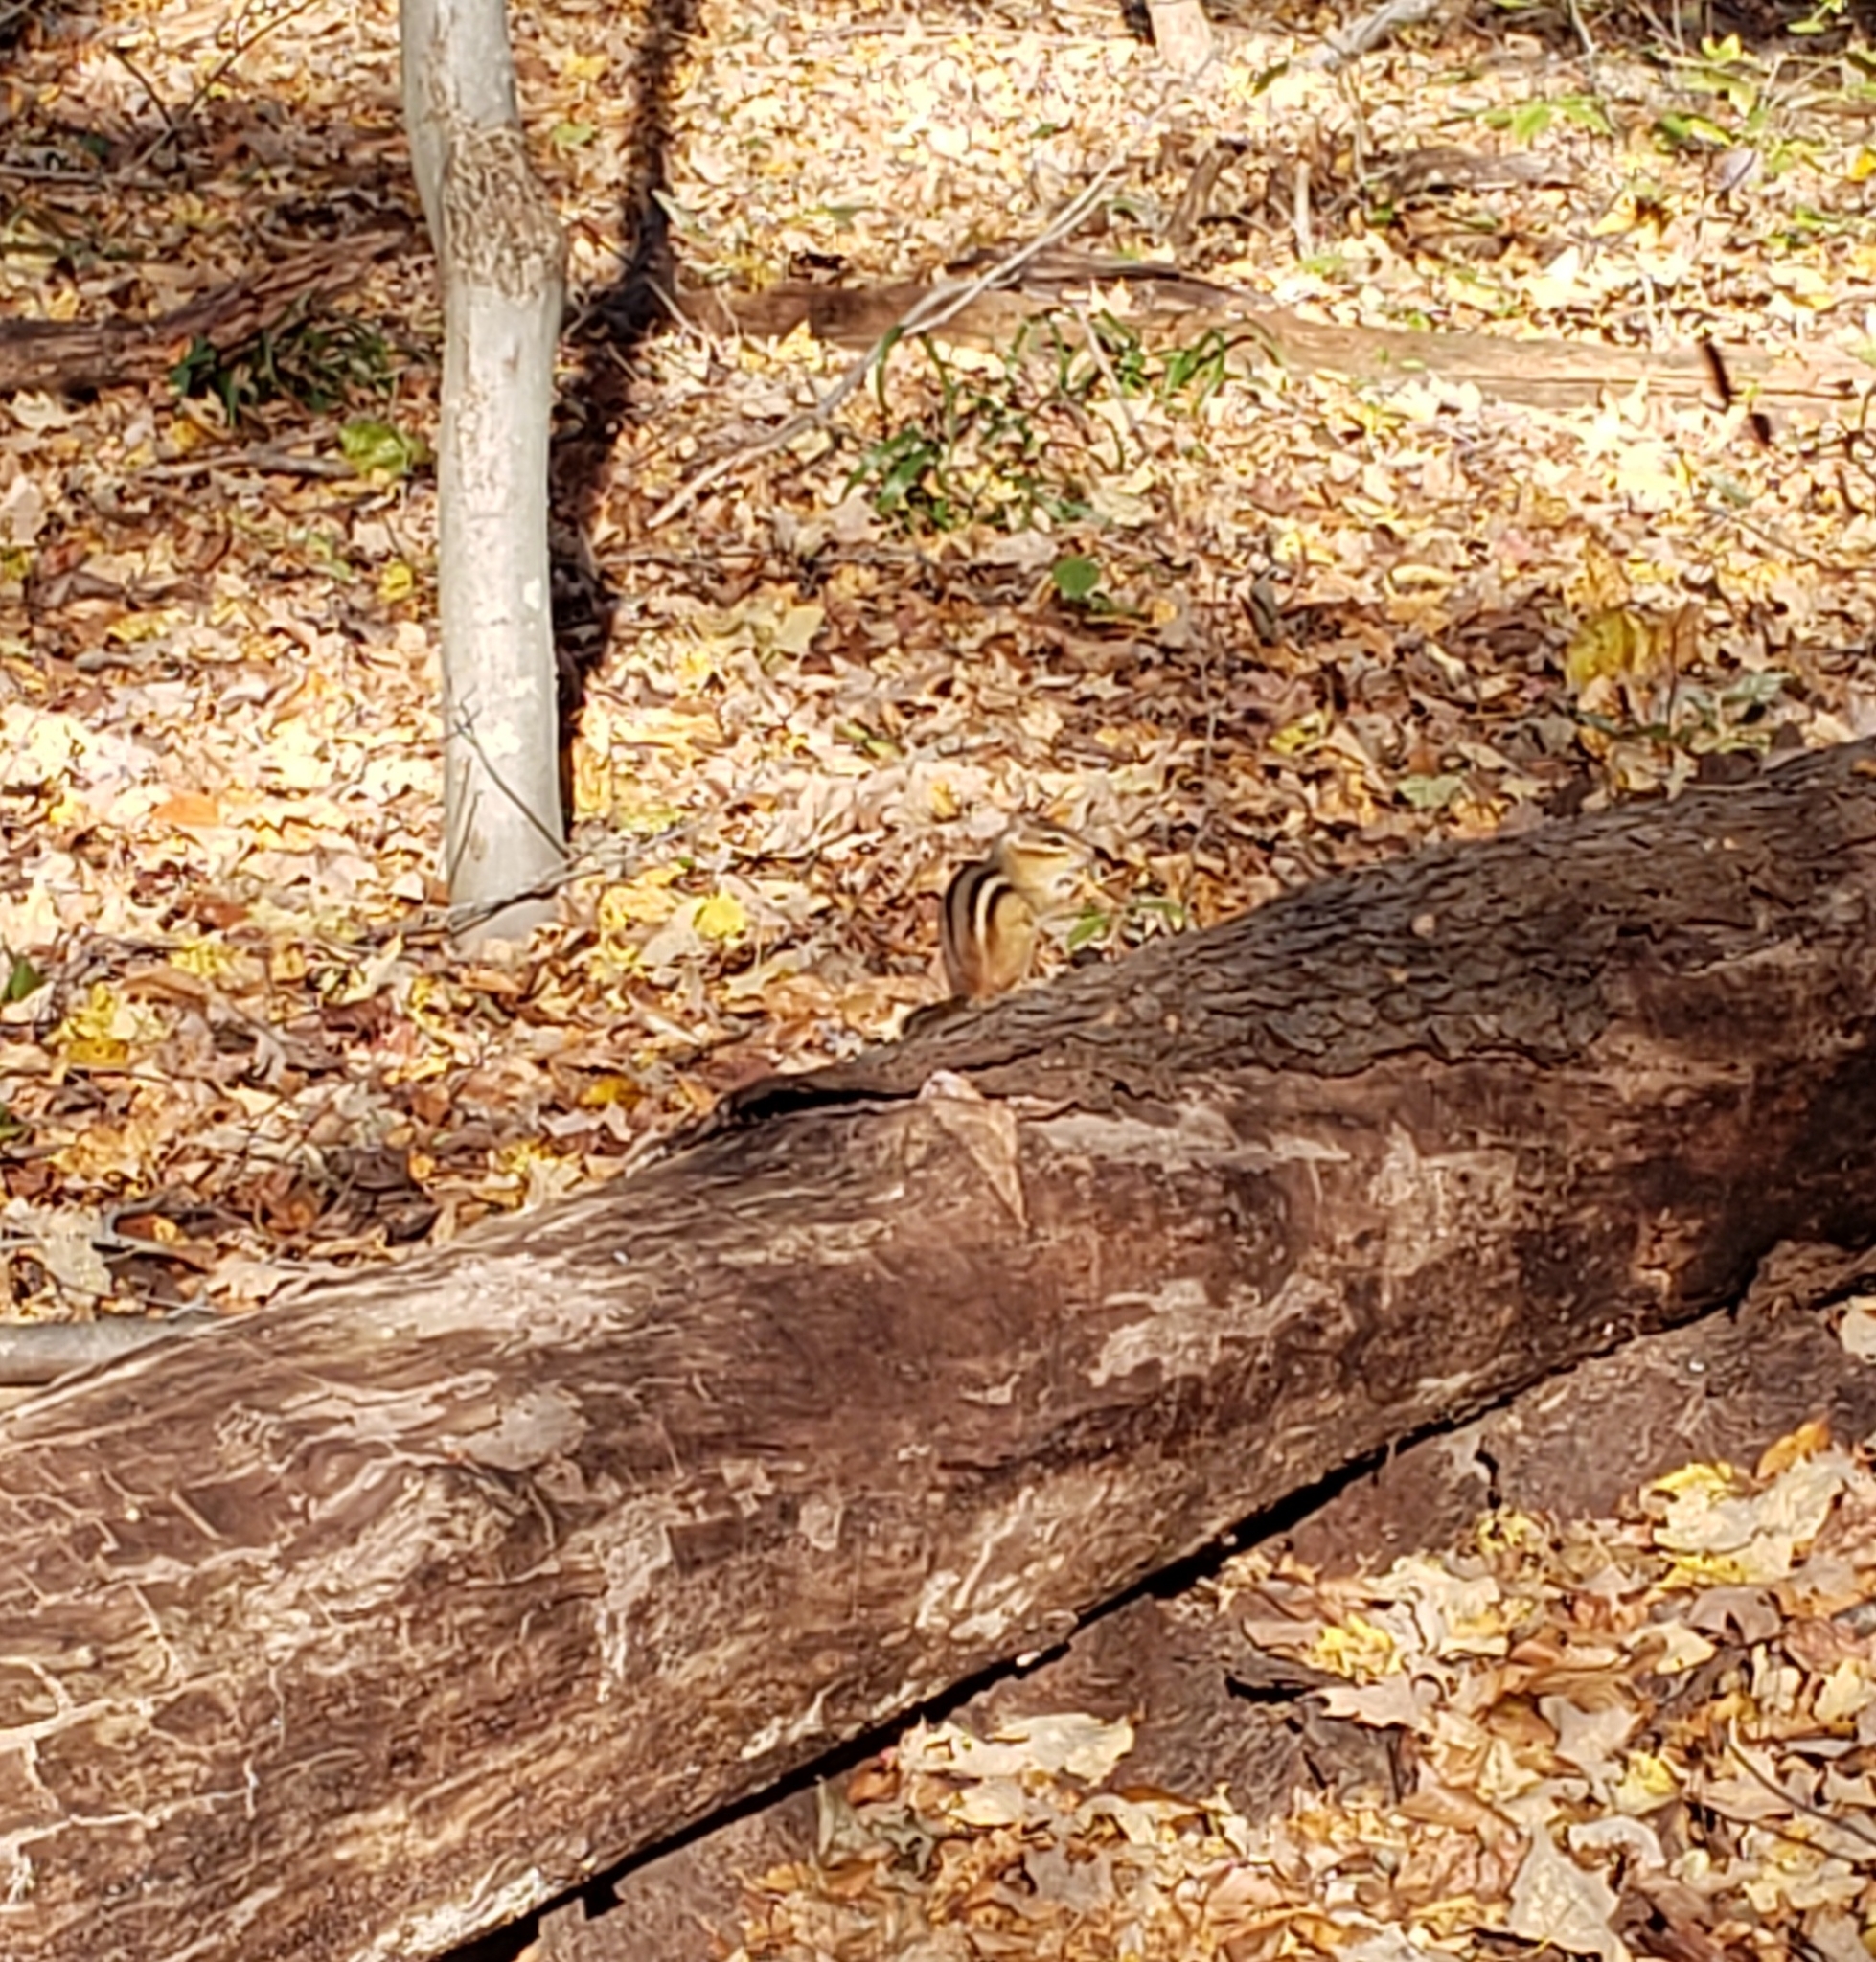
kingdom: Animalia
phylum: Chordata
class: Mammalia
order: Rodentia
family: Sciuridae
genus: Tamias
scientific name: Tamias striatus
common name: Eastern chipmunk
